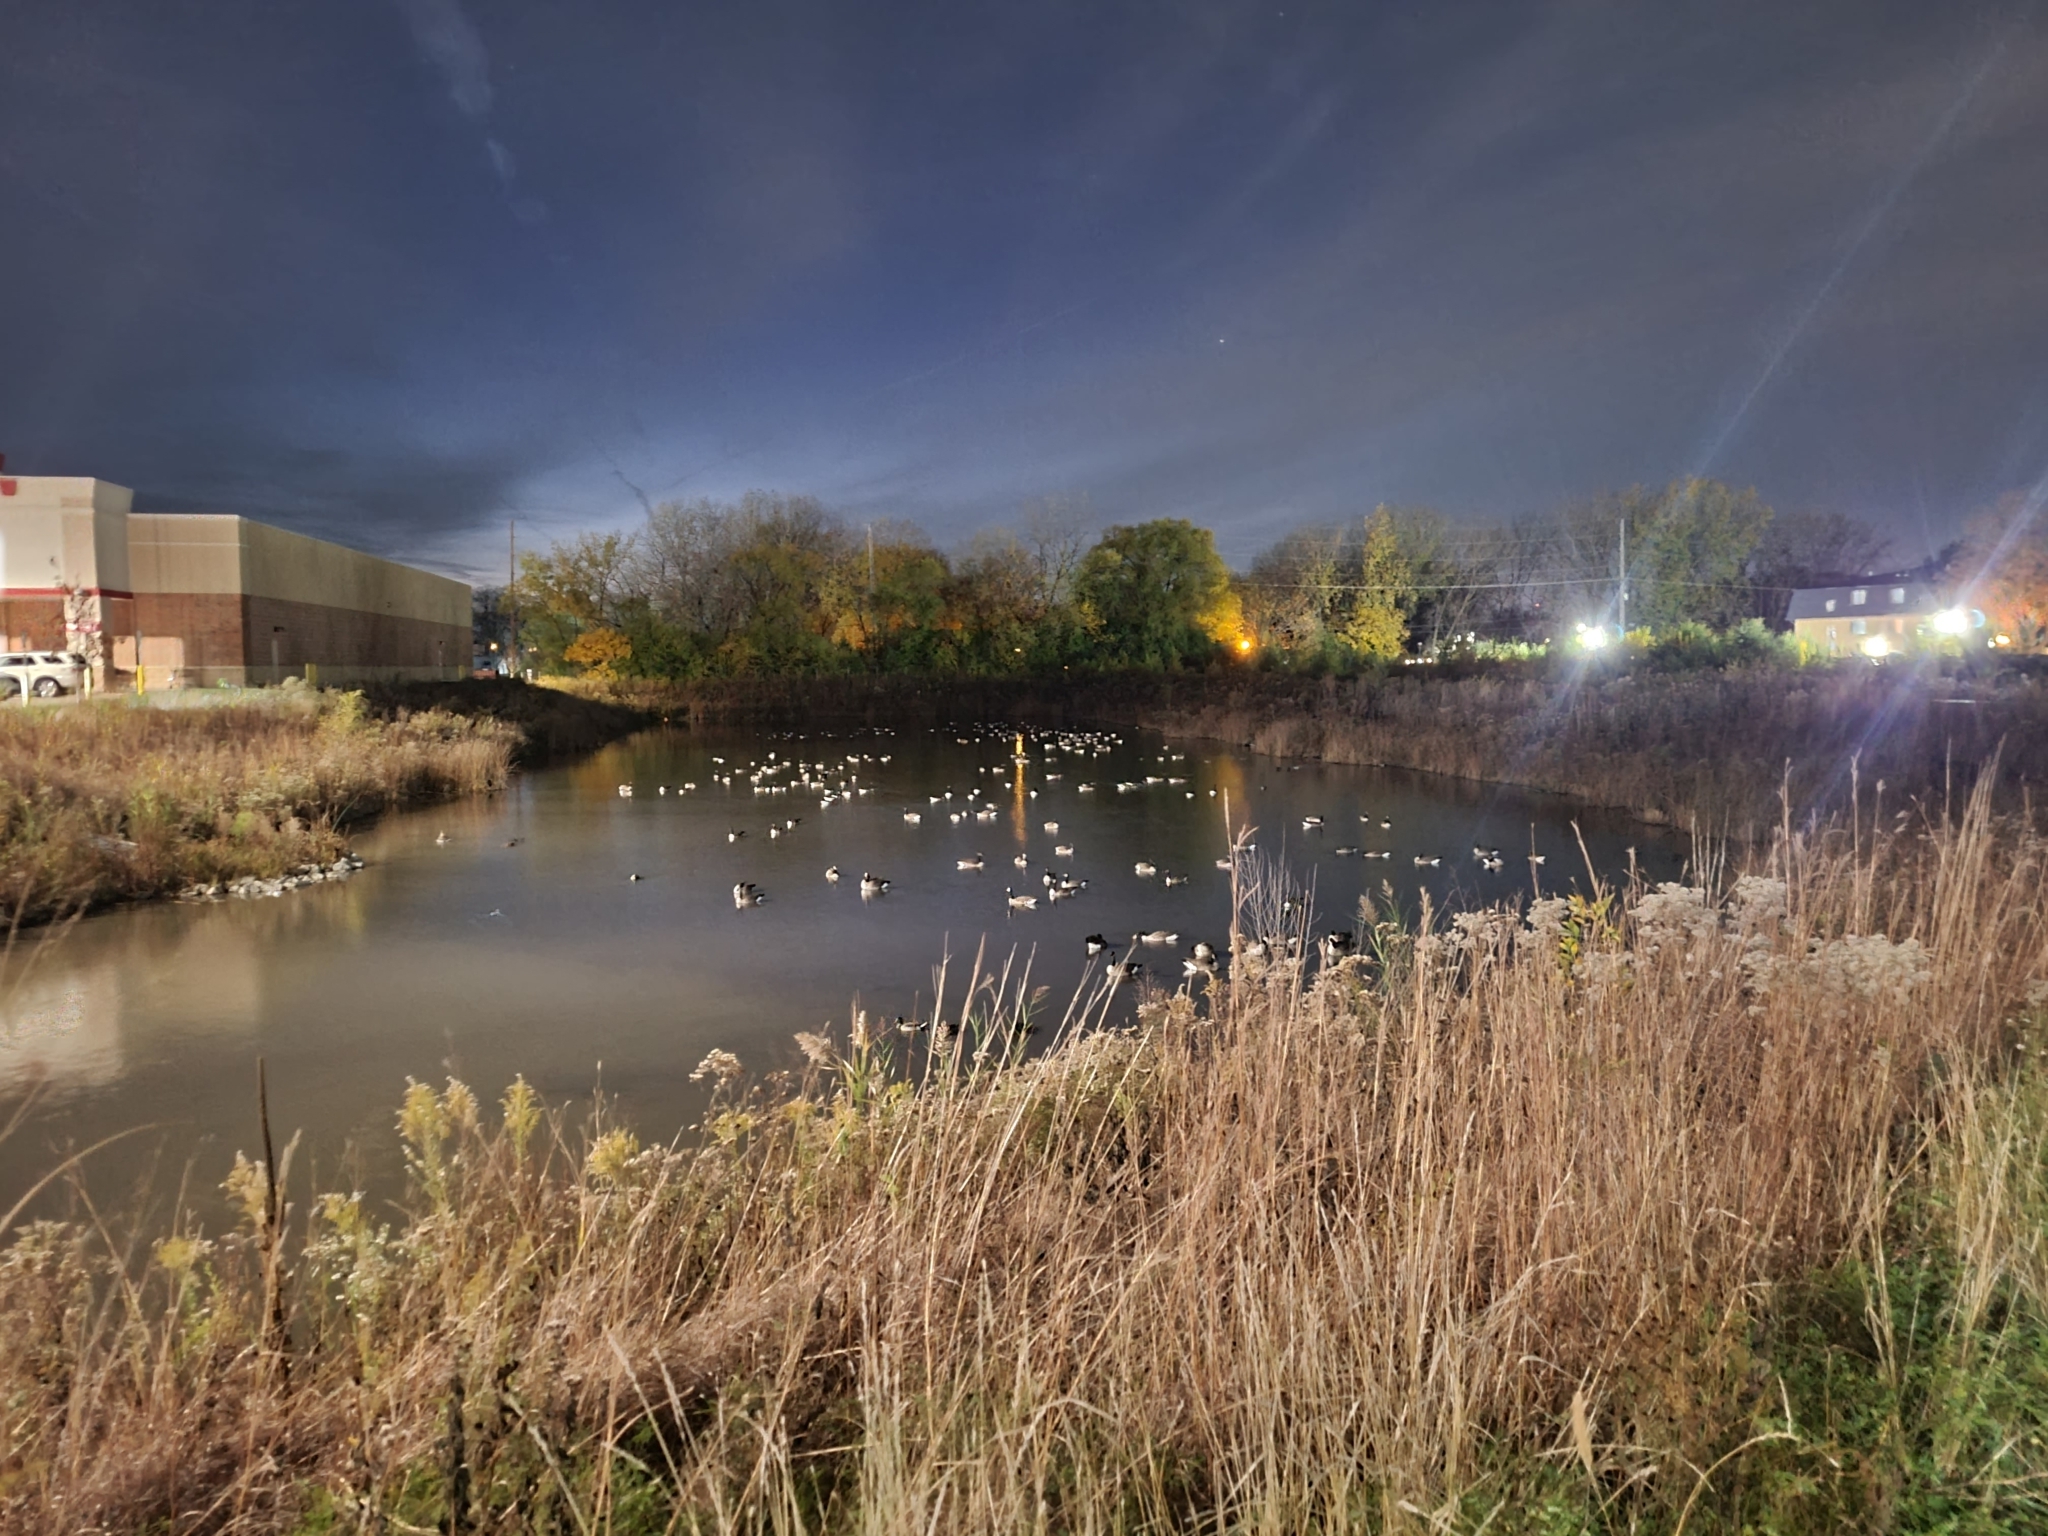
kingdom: Animalia
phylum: Chordata
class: Aves
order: Anseriformes
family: Anatidae
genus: Branta
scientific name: Branta canadensis
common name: Canada goose
